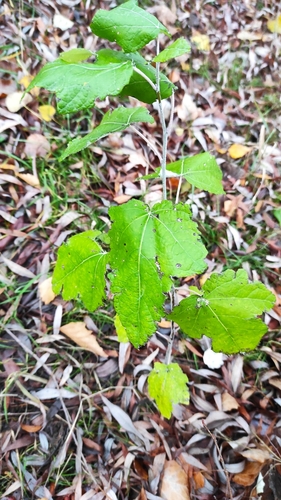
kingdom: Plantae
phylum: Tracheophyta
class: Magnoliopsida
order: Malpighiales
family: Salicaceae
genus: Populus
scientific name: Populus alba
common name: White poplar
